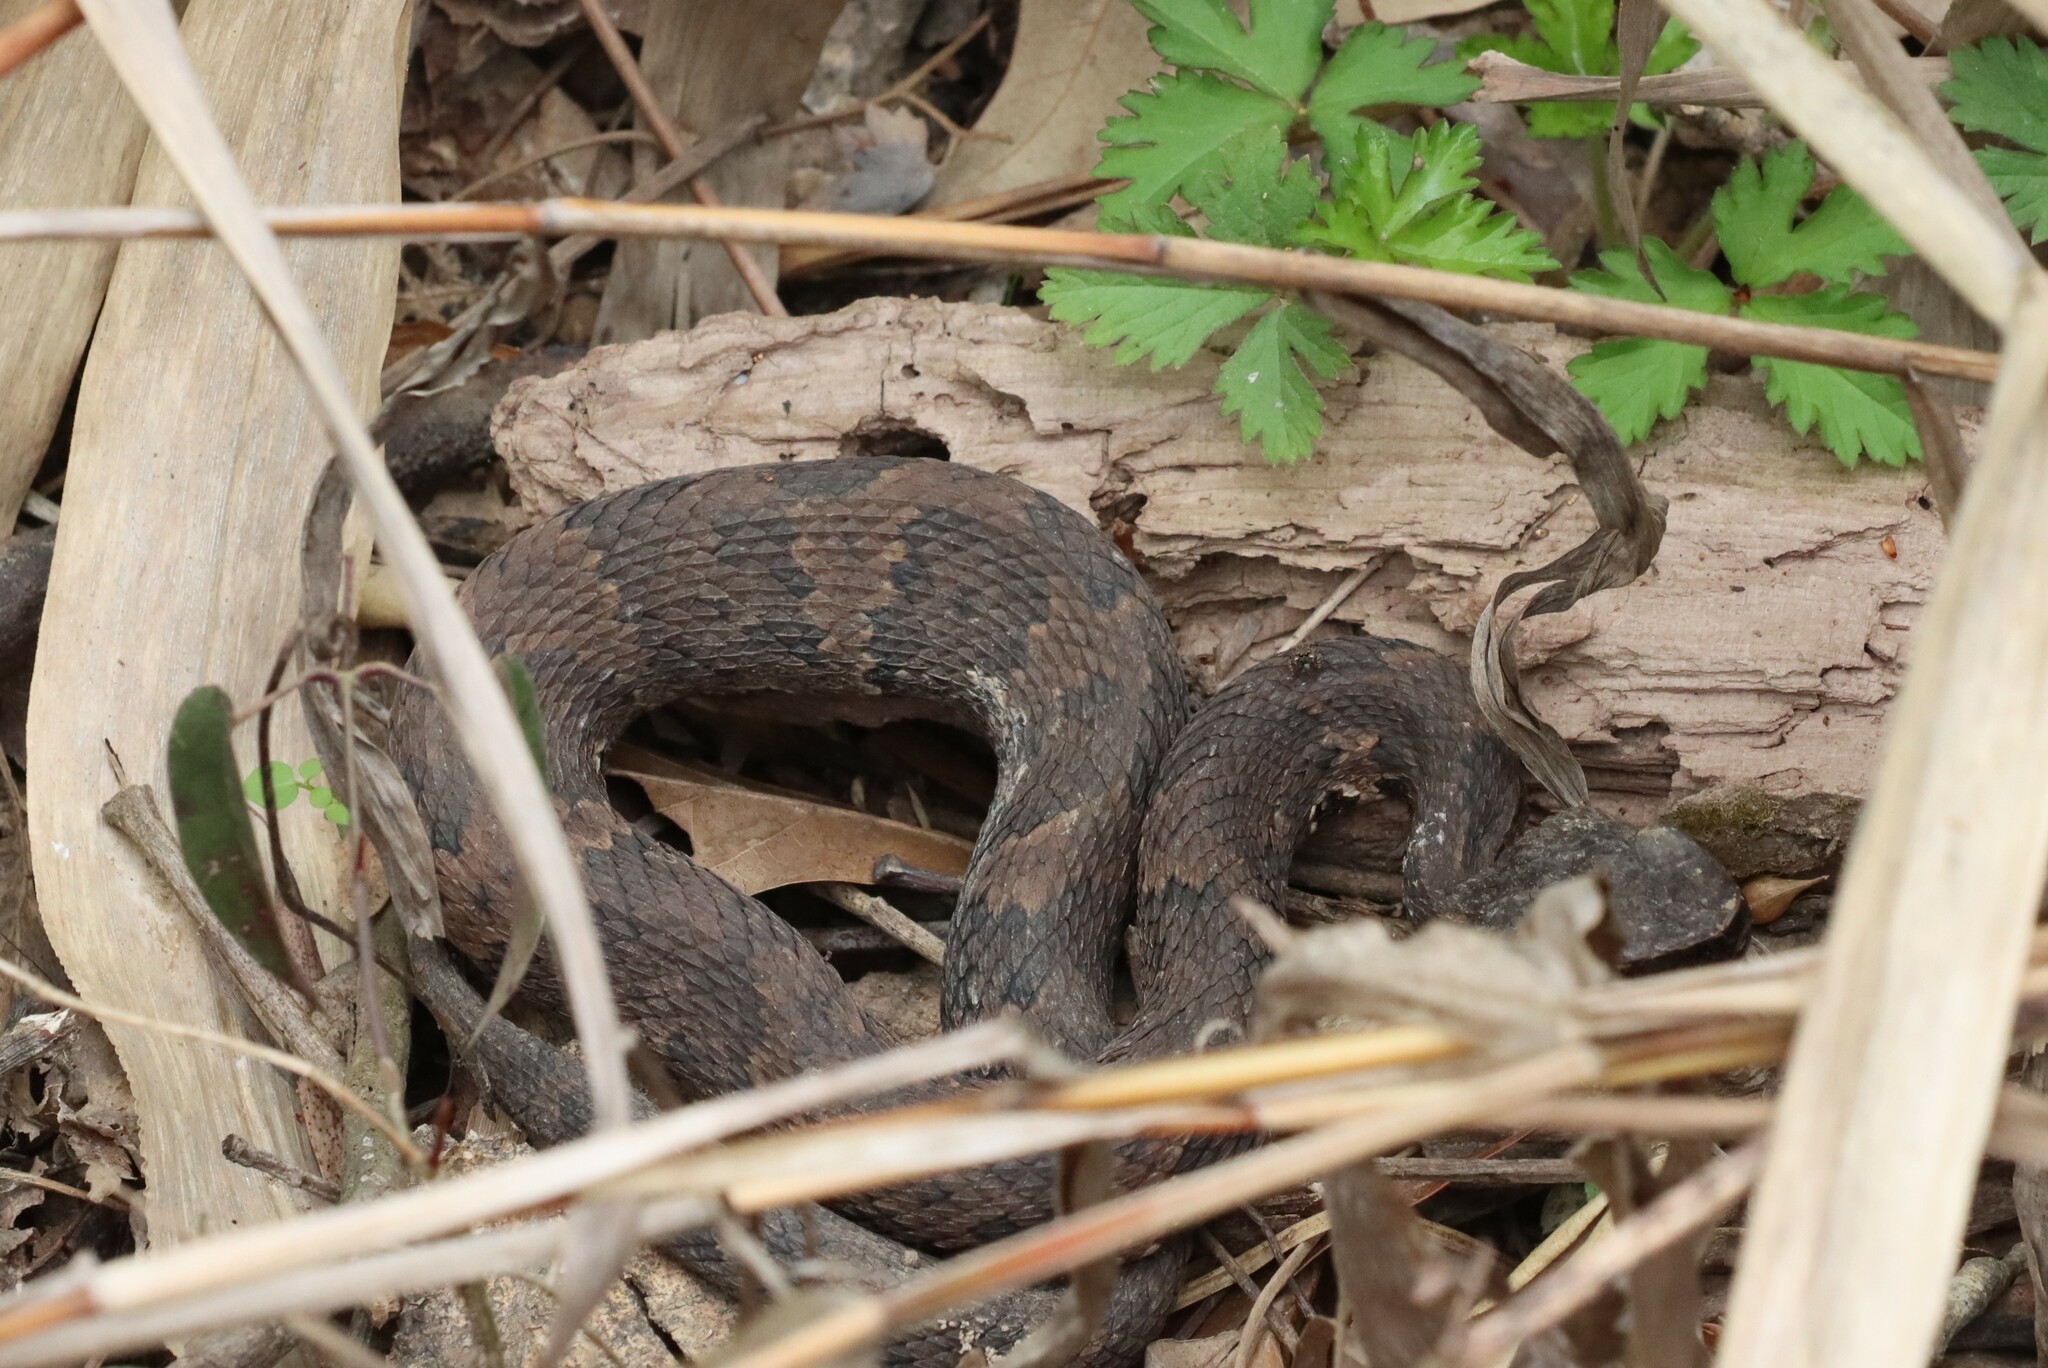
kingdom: Animalia
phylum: Chordata
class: Squamata
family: Viperidae
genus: Agkistrodon
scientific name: Agkistrodon piscivorus
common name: Cottonmouth
